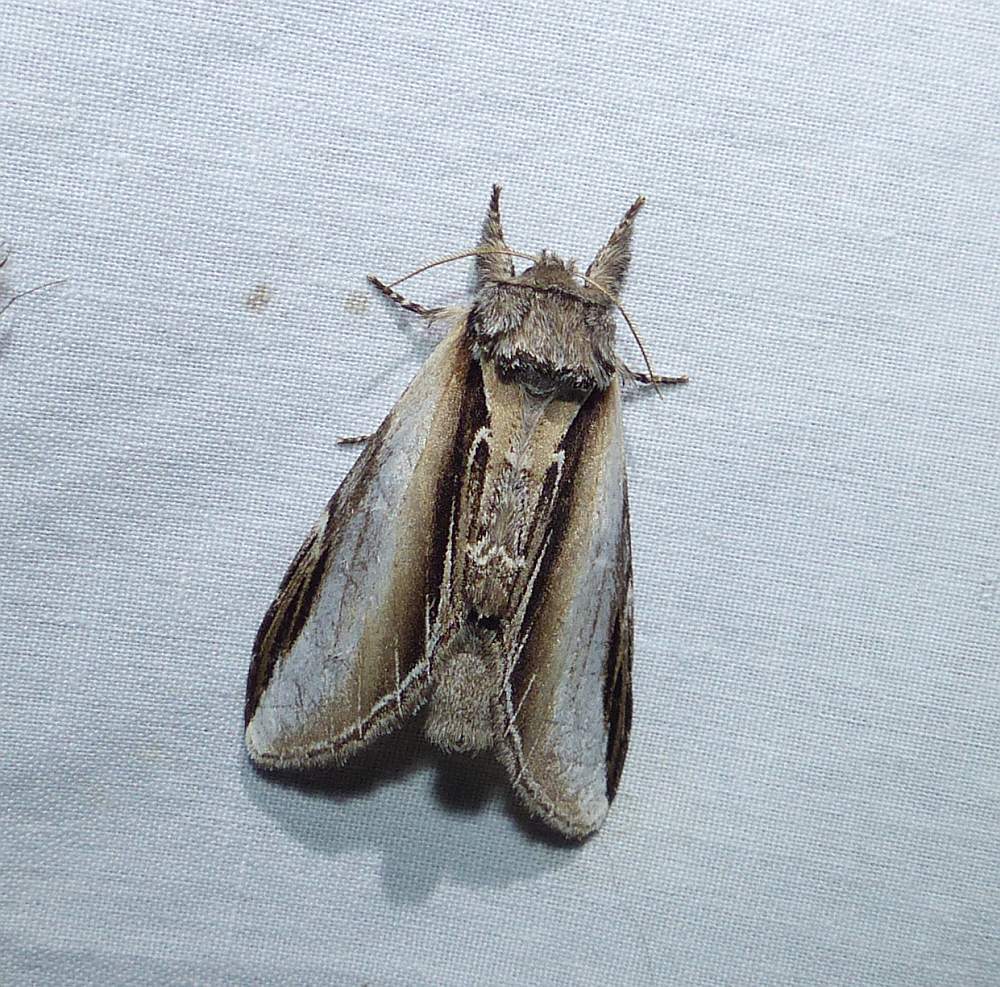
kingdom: Animalia
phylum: Arthropoda
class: Insecta
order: Lepidoptera
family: Notodontidae
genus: Pheosia
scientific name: Pheosia rimosa
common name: Black-rimmed prominent
